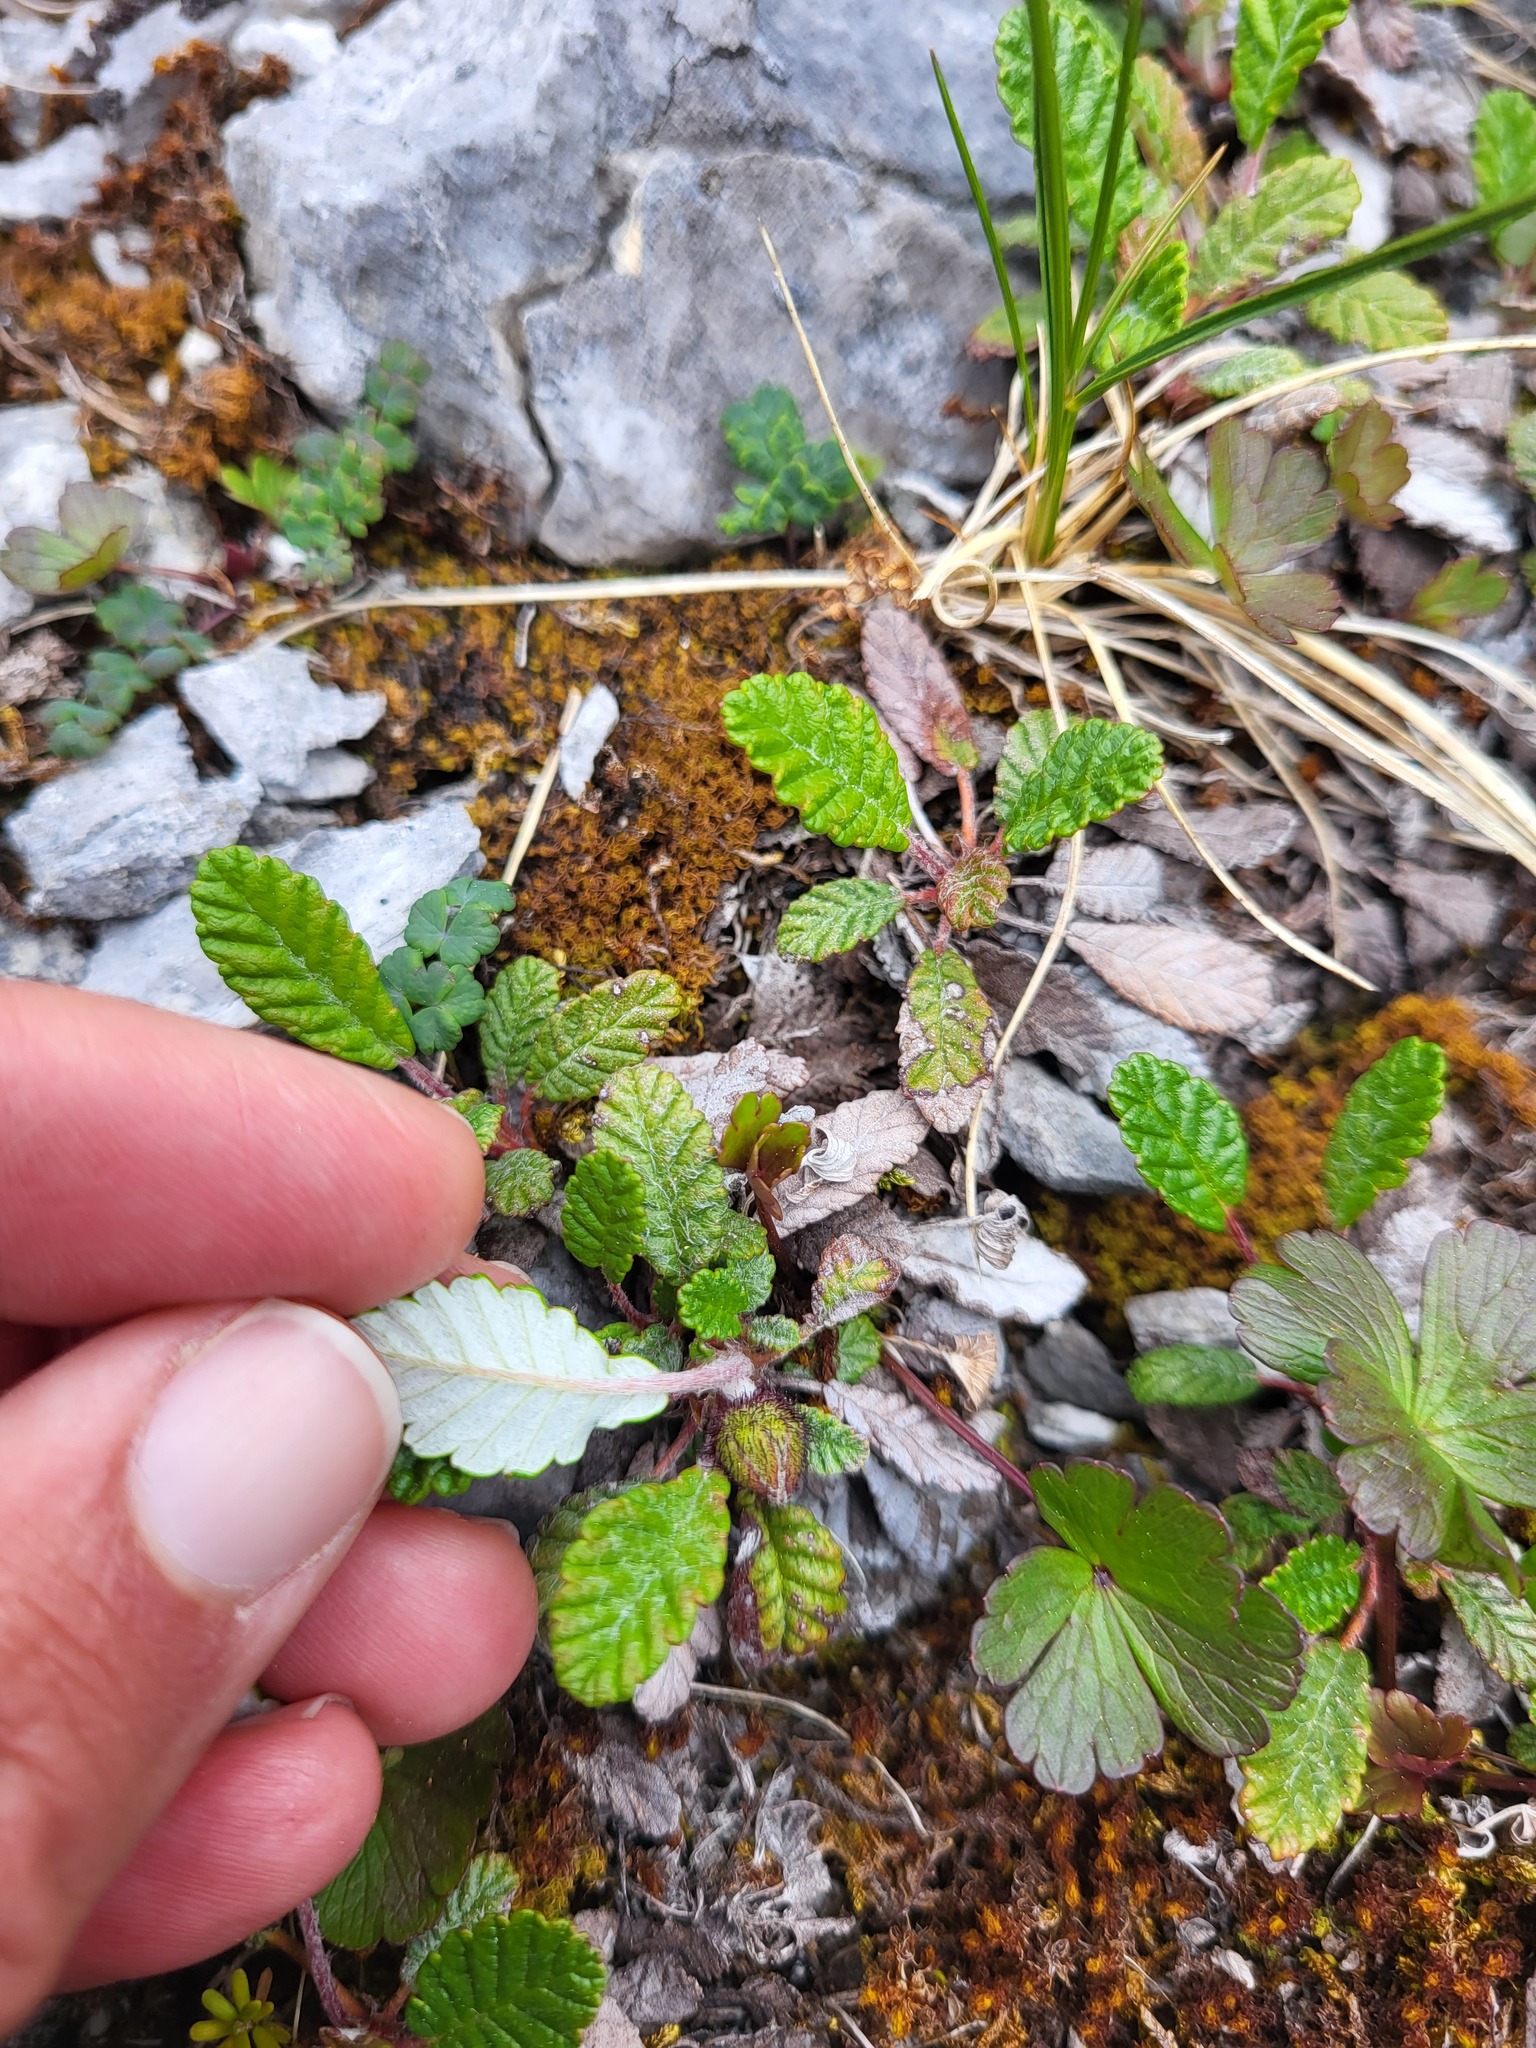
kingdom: Plantae
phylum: Tracheophyta
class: Magnoliopsida
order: Rosales
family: Rosaceae
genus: Dryas
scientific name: Dryas drummondii
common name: Drummond's dryad
